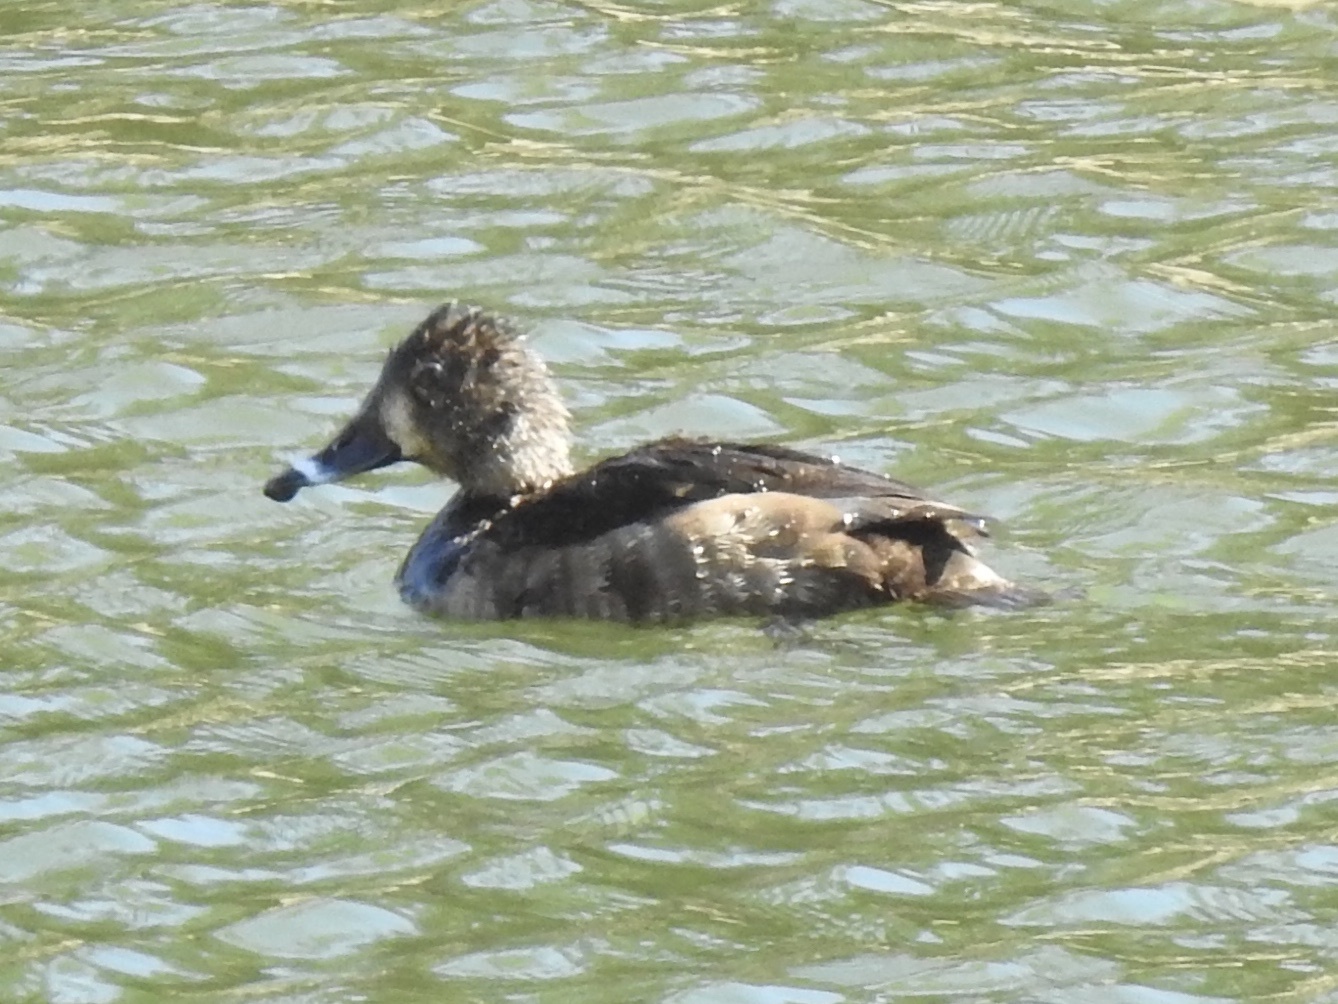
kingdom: Animalia
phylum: Chordata
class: Aves
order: Anseriformes
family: Anatidae
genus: Aythya
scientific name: Aythya collaris
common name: Ring-necked duck
